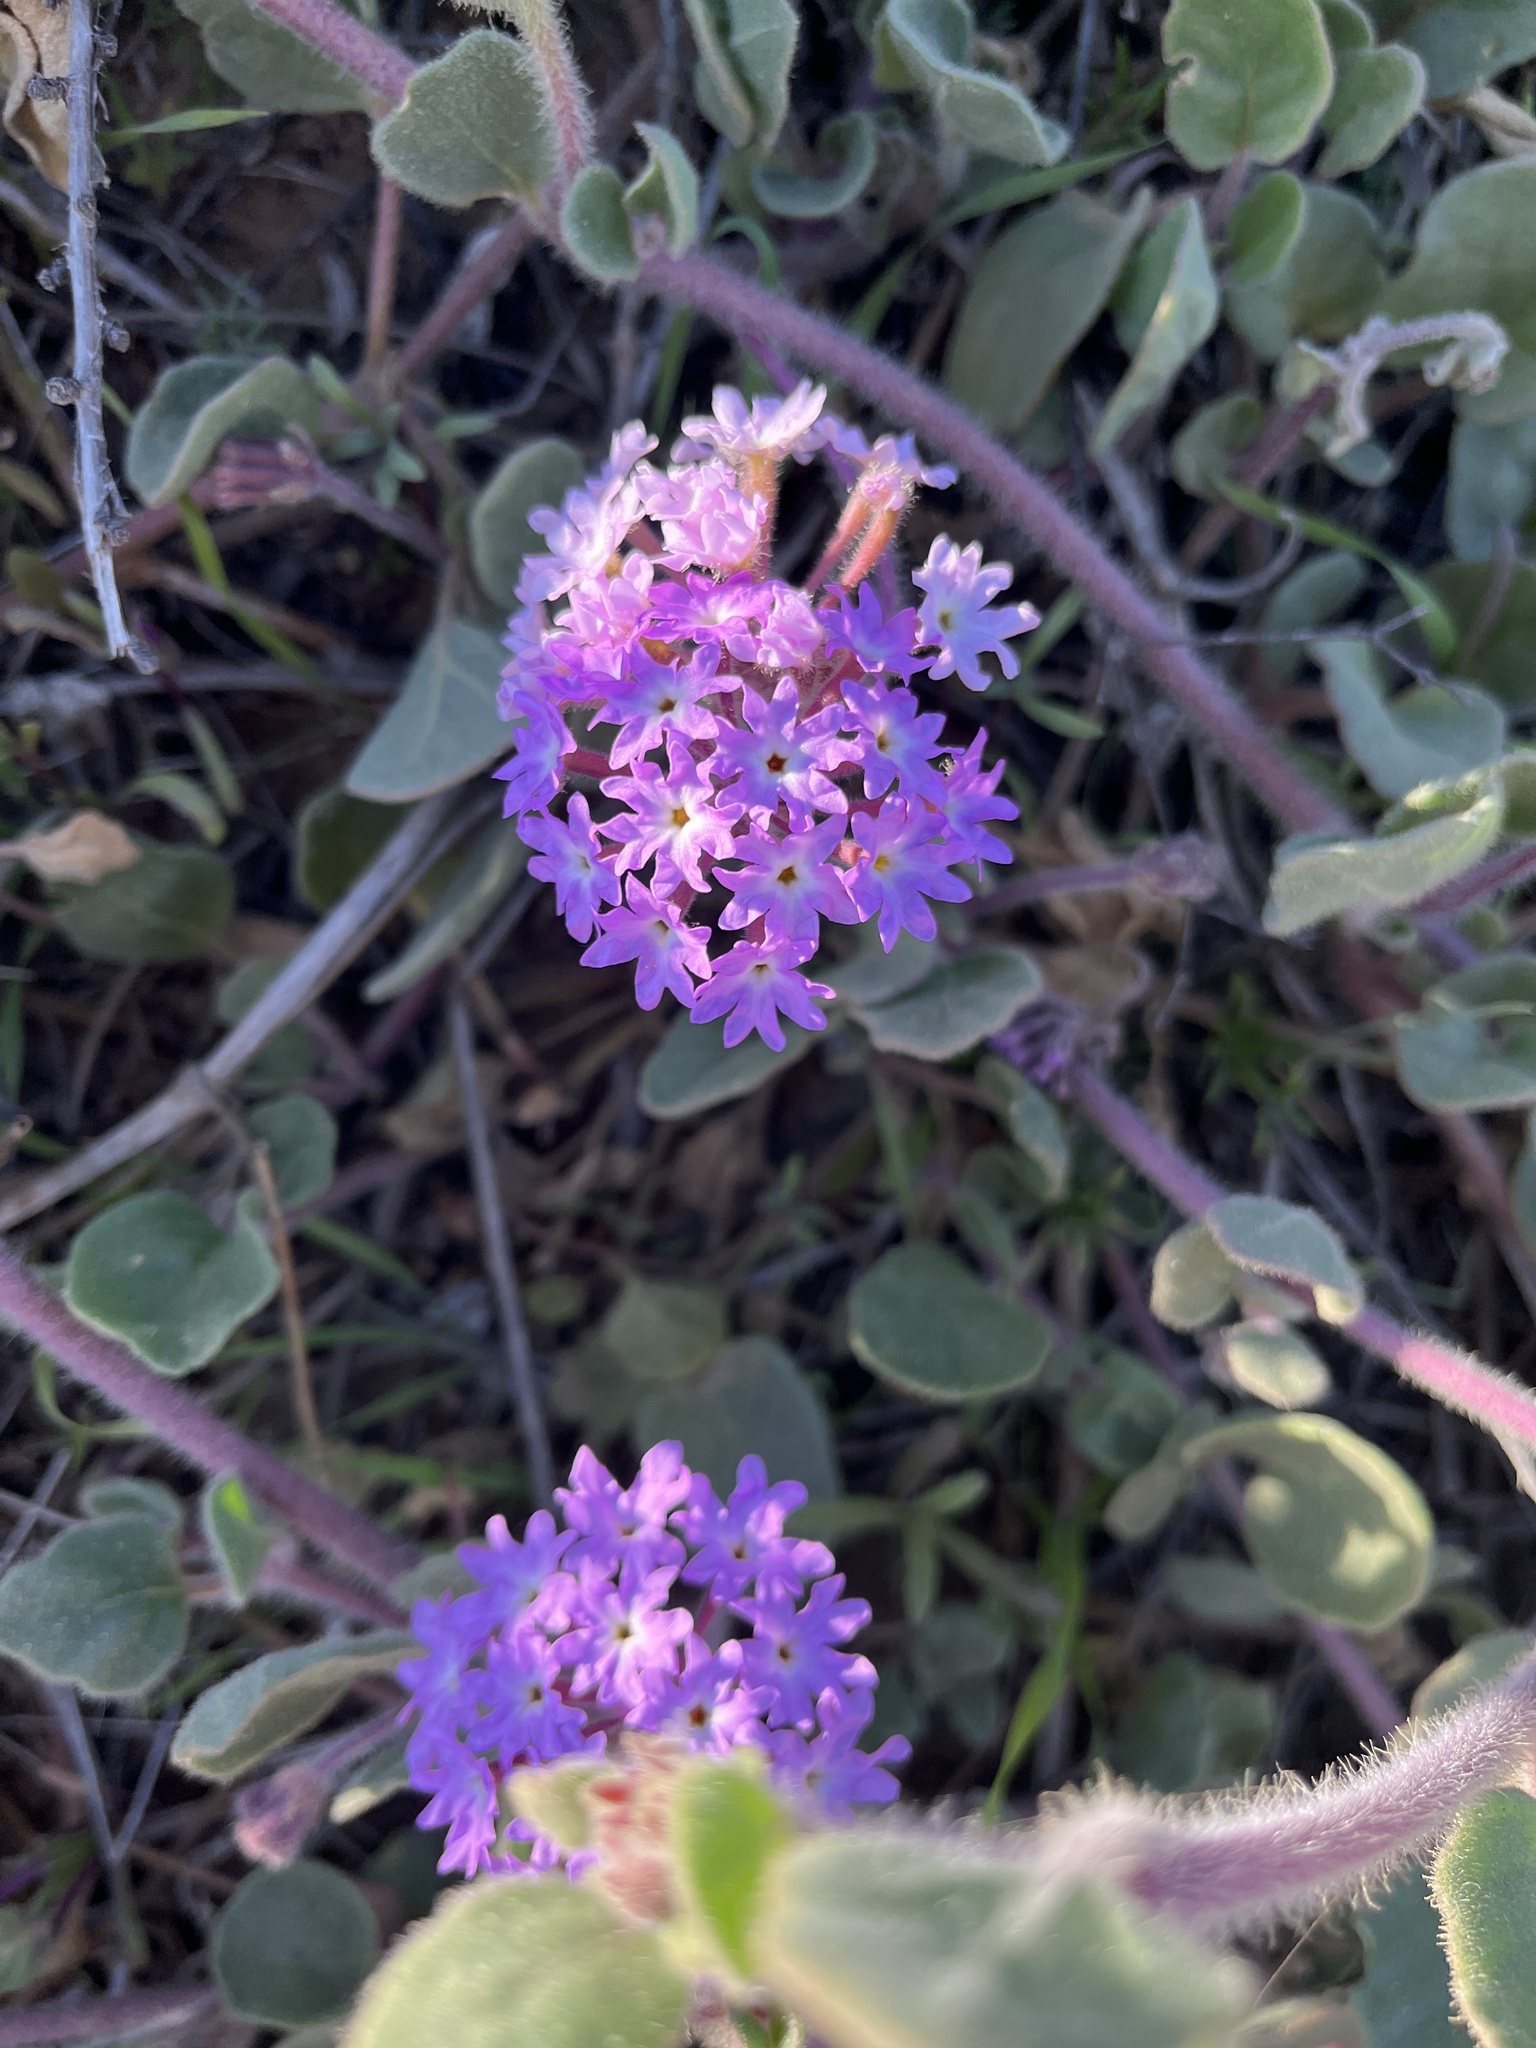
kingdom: Plantae
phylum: Tracheophyta
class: Magnoliopsida
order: Caryophyllales
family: Nyctaginaceae
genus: Abronia
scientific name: Abronia umbellata
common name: Sand-verbena
